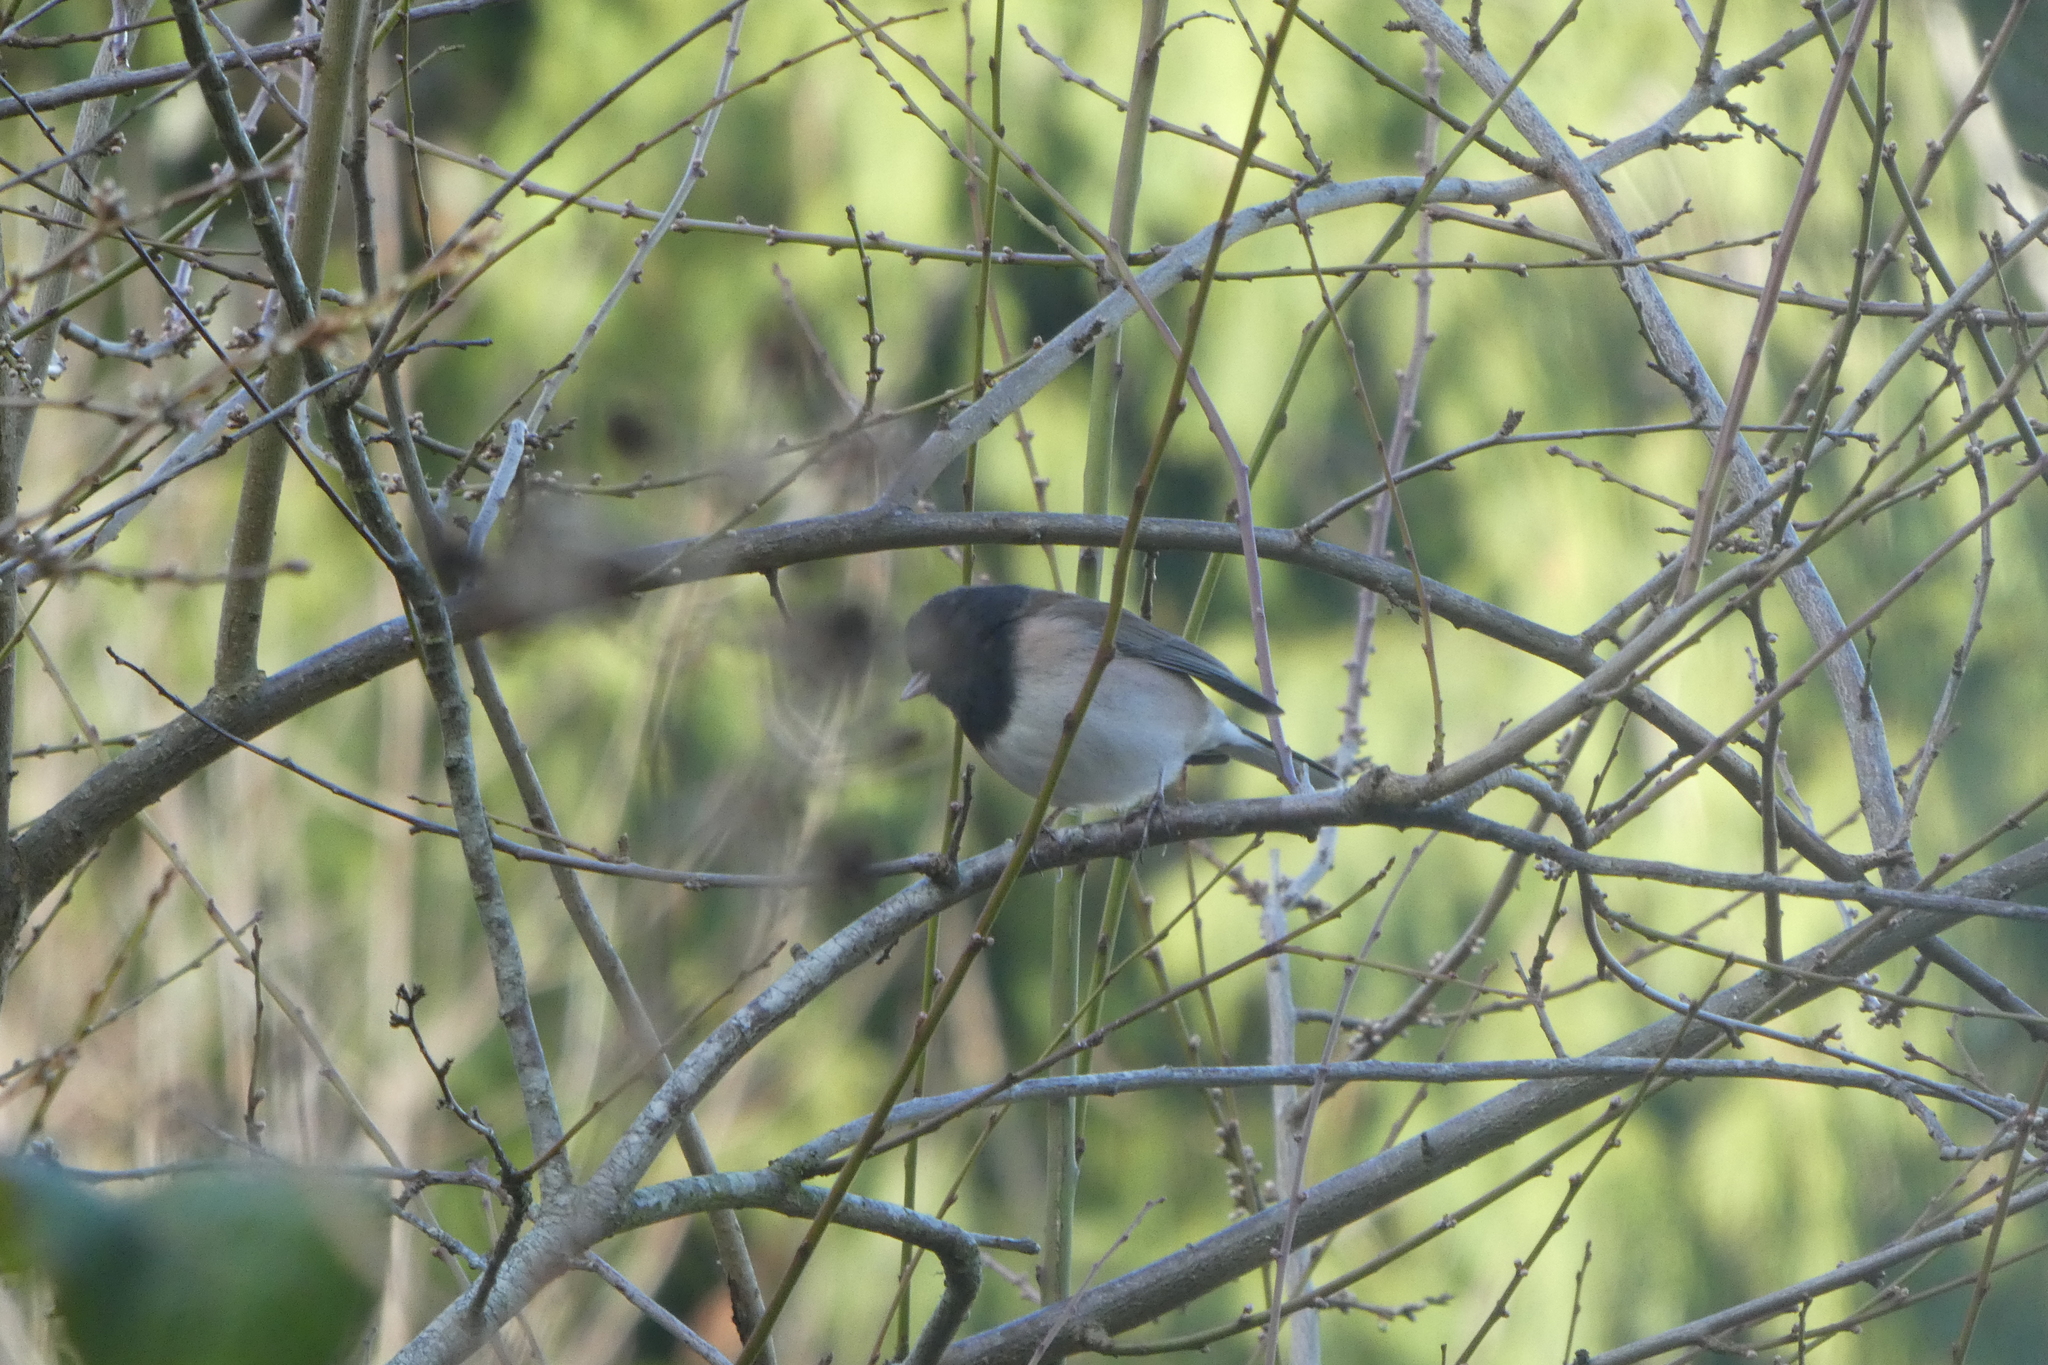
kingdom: Animalia
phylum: Chordata
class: Aves
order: Passeriformes
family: Passerellidae
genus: Junco
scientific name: Junco hyemalis
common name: Dark-eyed junco
